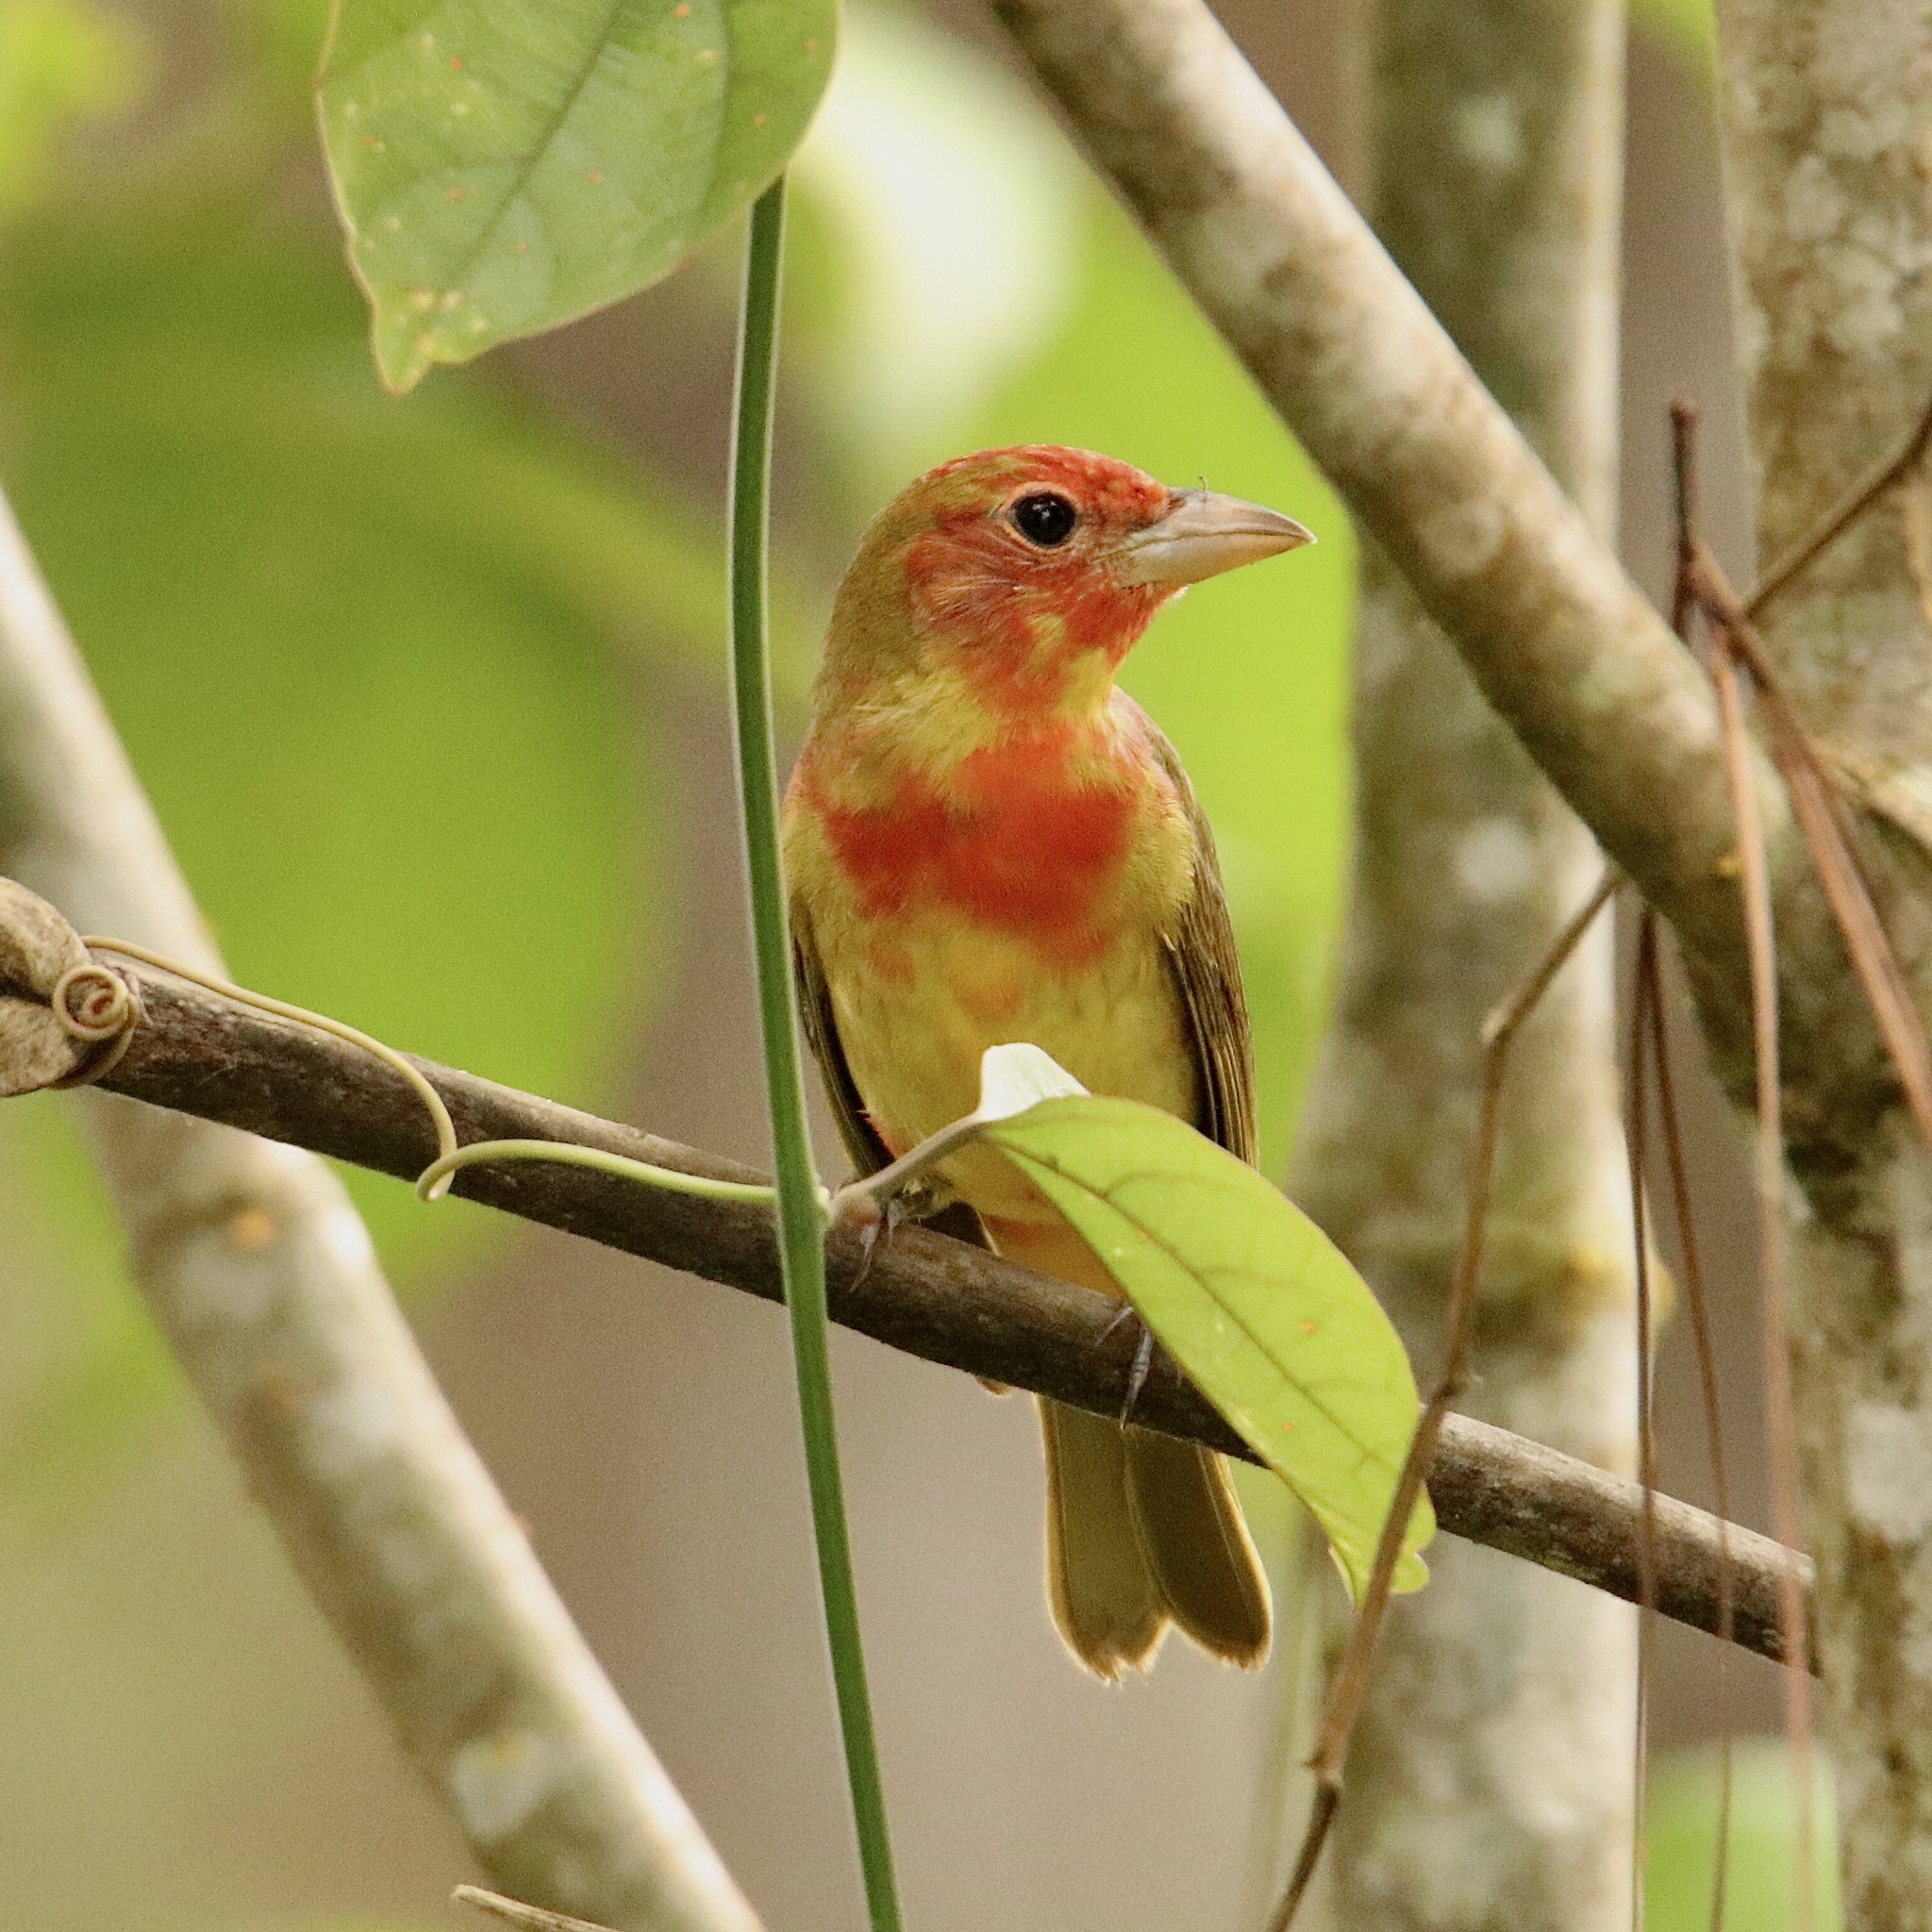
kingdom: Animalia
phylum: Chordata
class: Aves
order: Passeriformes
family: Cardinalidae
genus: Piranga
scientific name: Piranga rubra
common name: Summer tanager
